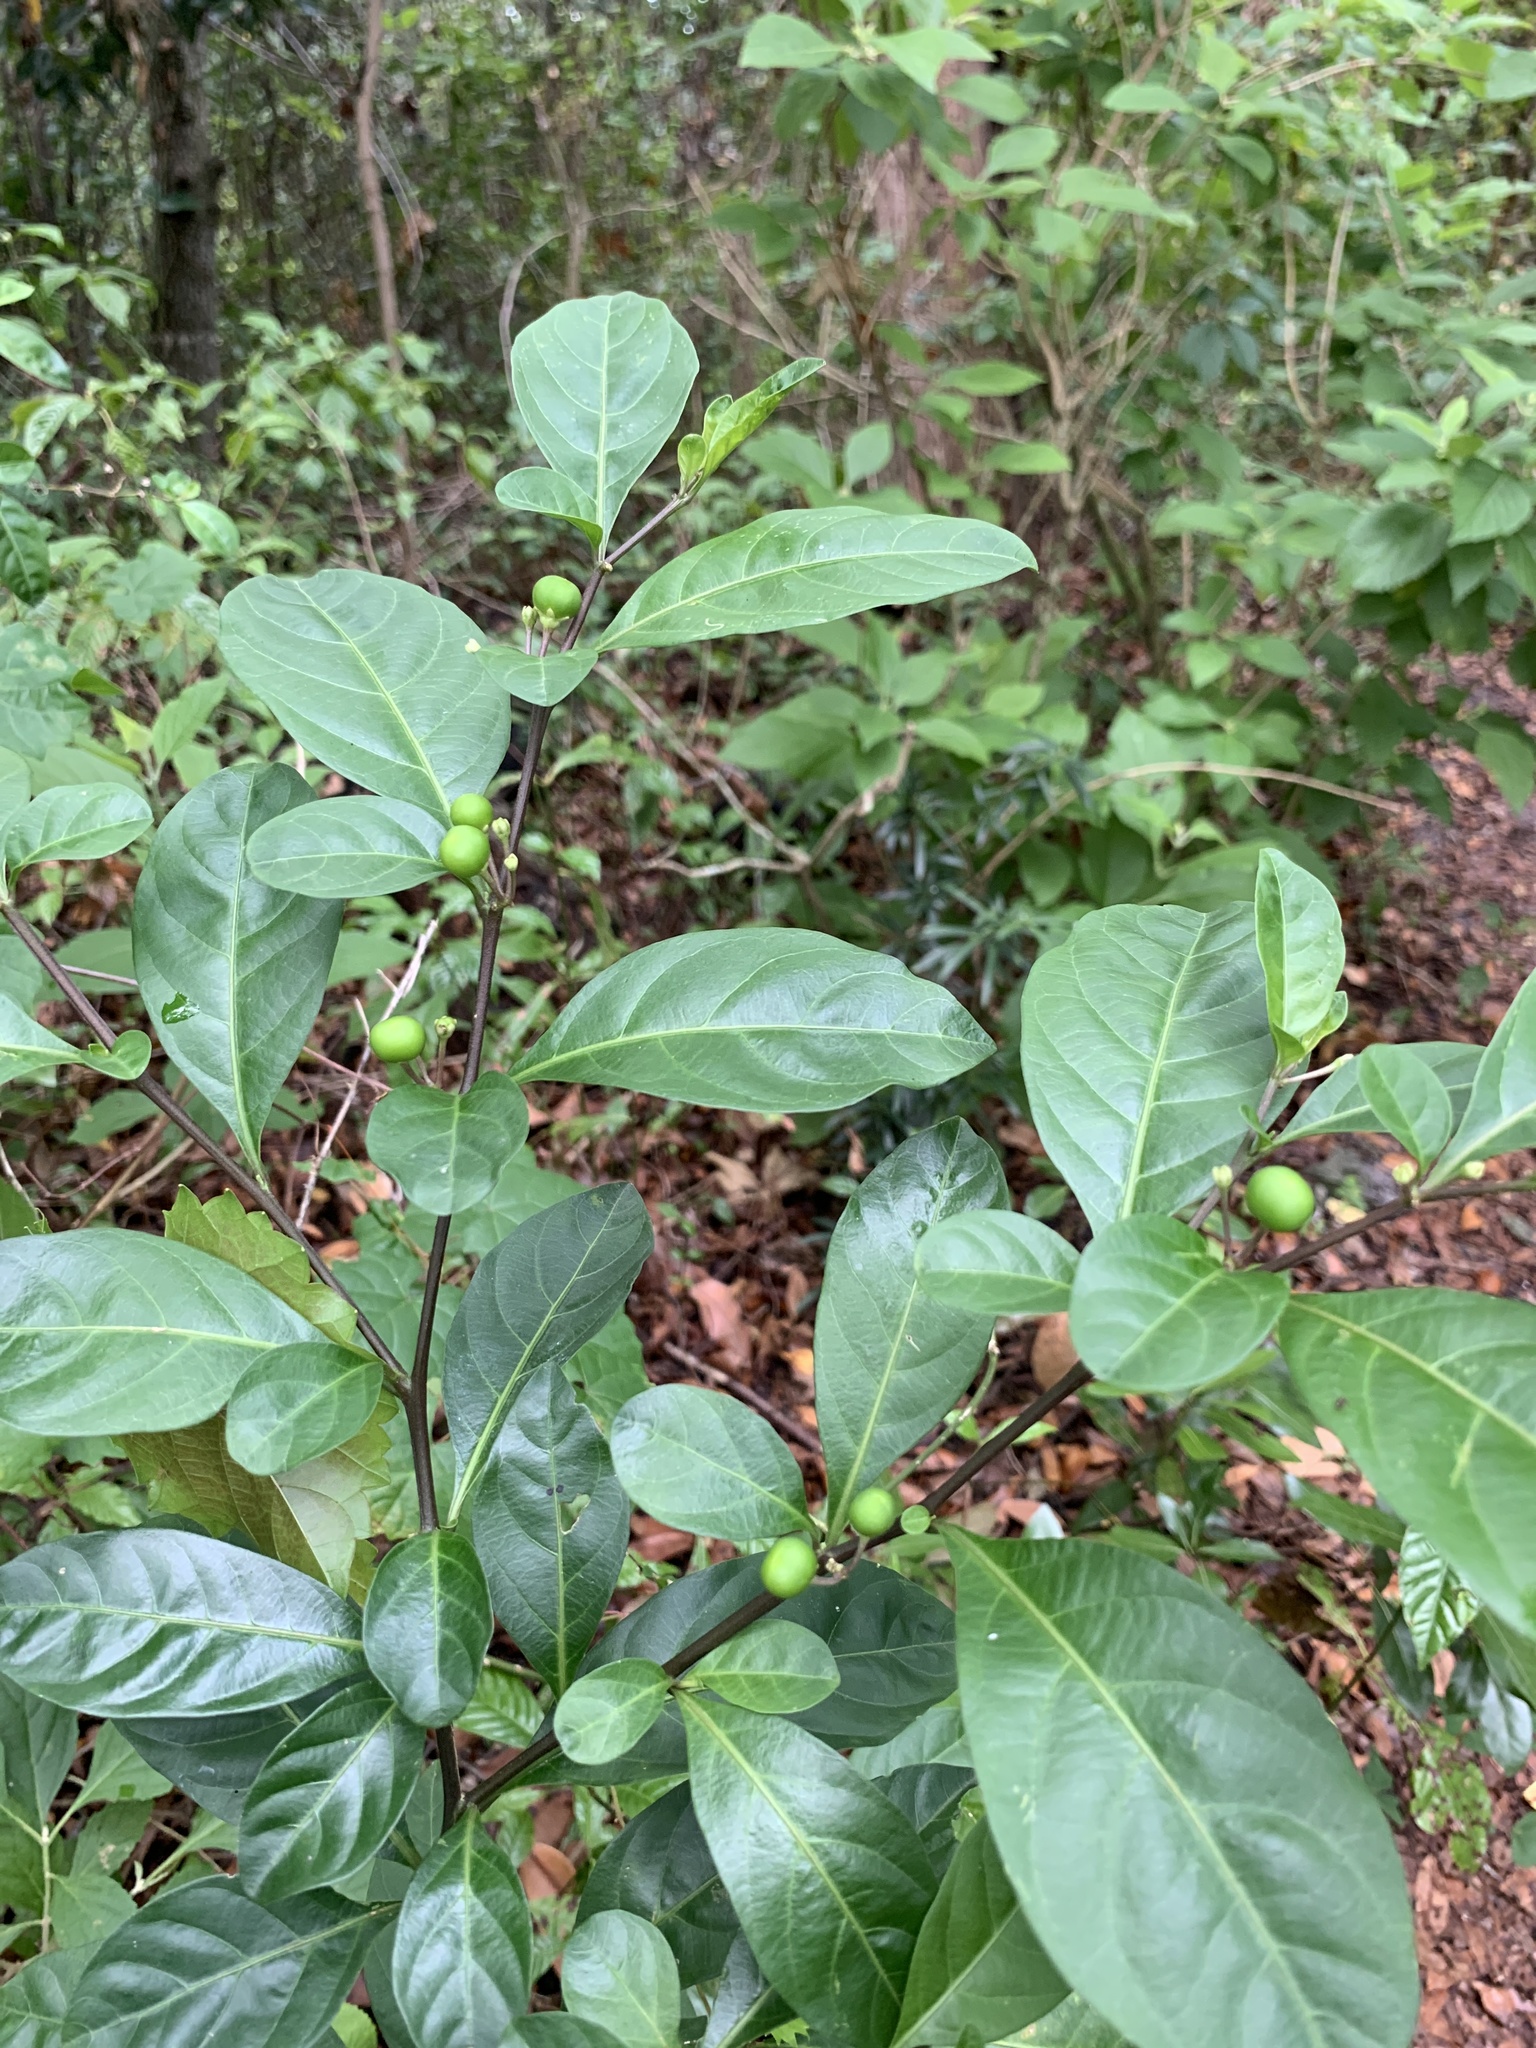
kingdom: Plantae
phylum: Tracheophyta
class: Magnoliopsida
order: Solanales
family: Solanaceae
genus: Solanum
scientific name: Solanum diphyllum
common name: Twoleaf nightshade
